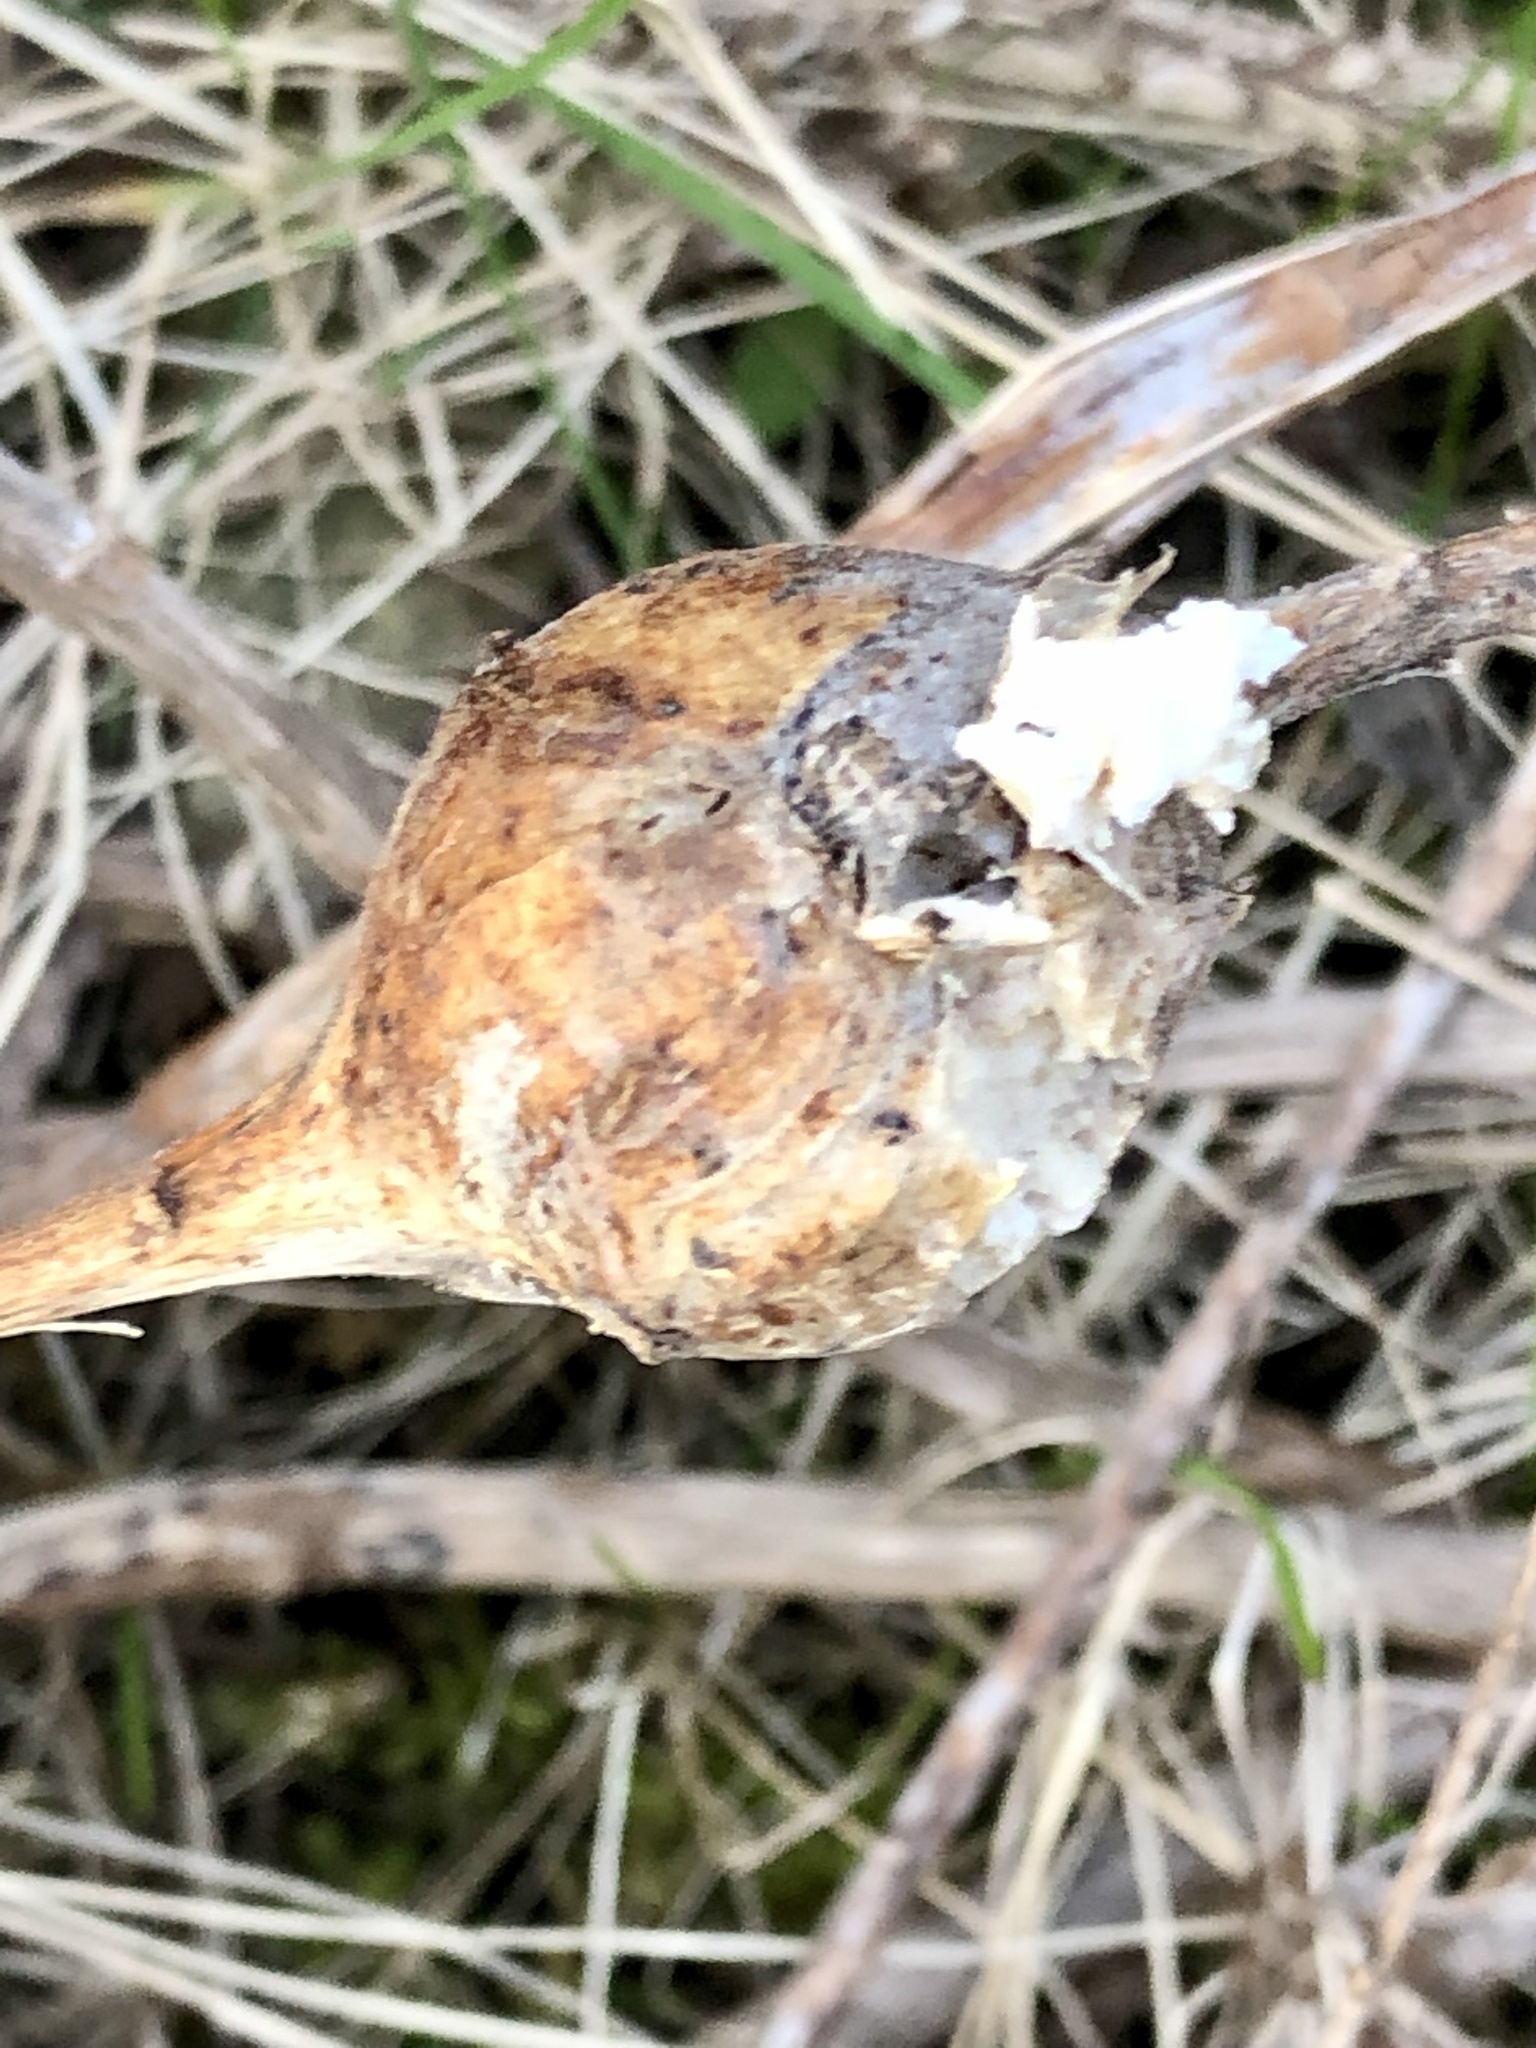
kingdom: Animalia
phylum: Arthropoda
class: Insecta
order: Diptera
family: Tephritidae
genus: Eurosta
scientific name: Eurosta solidaginis
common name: Goldenrod gall fly
